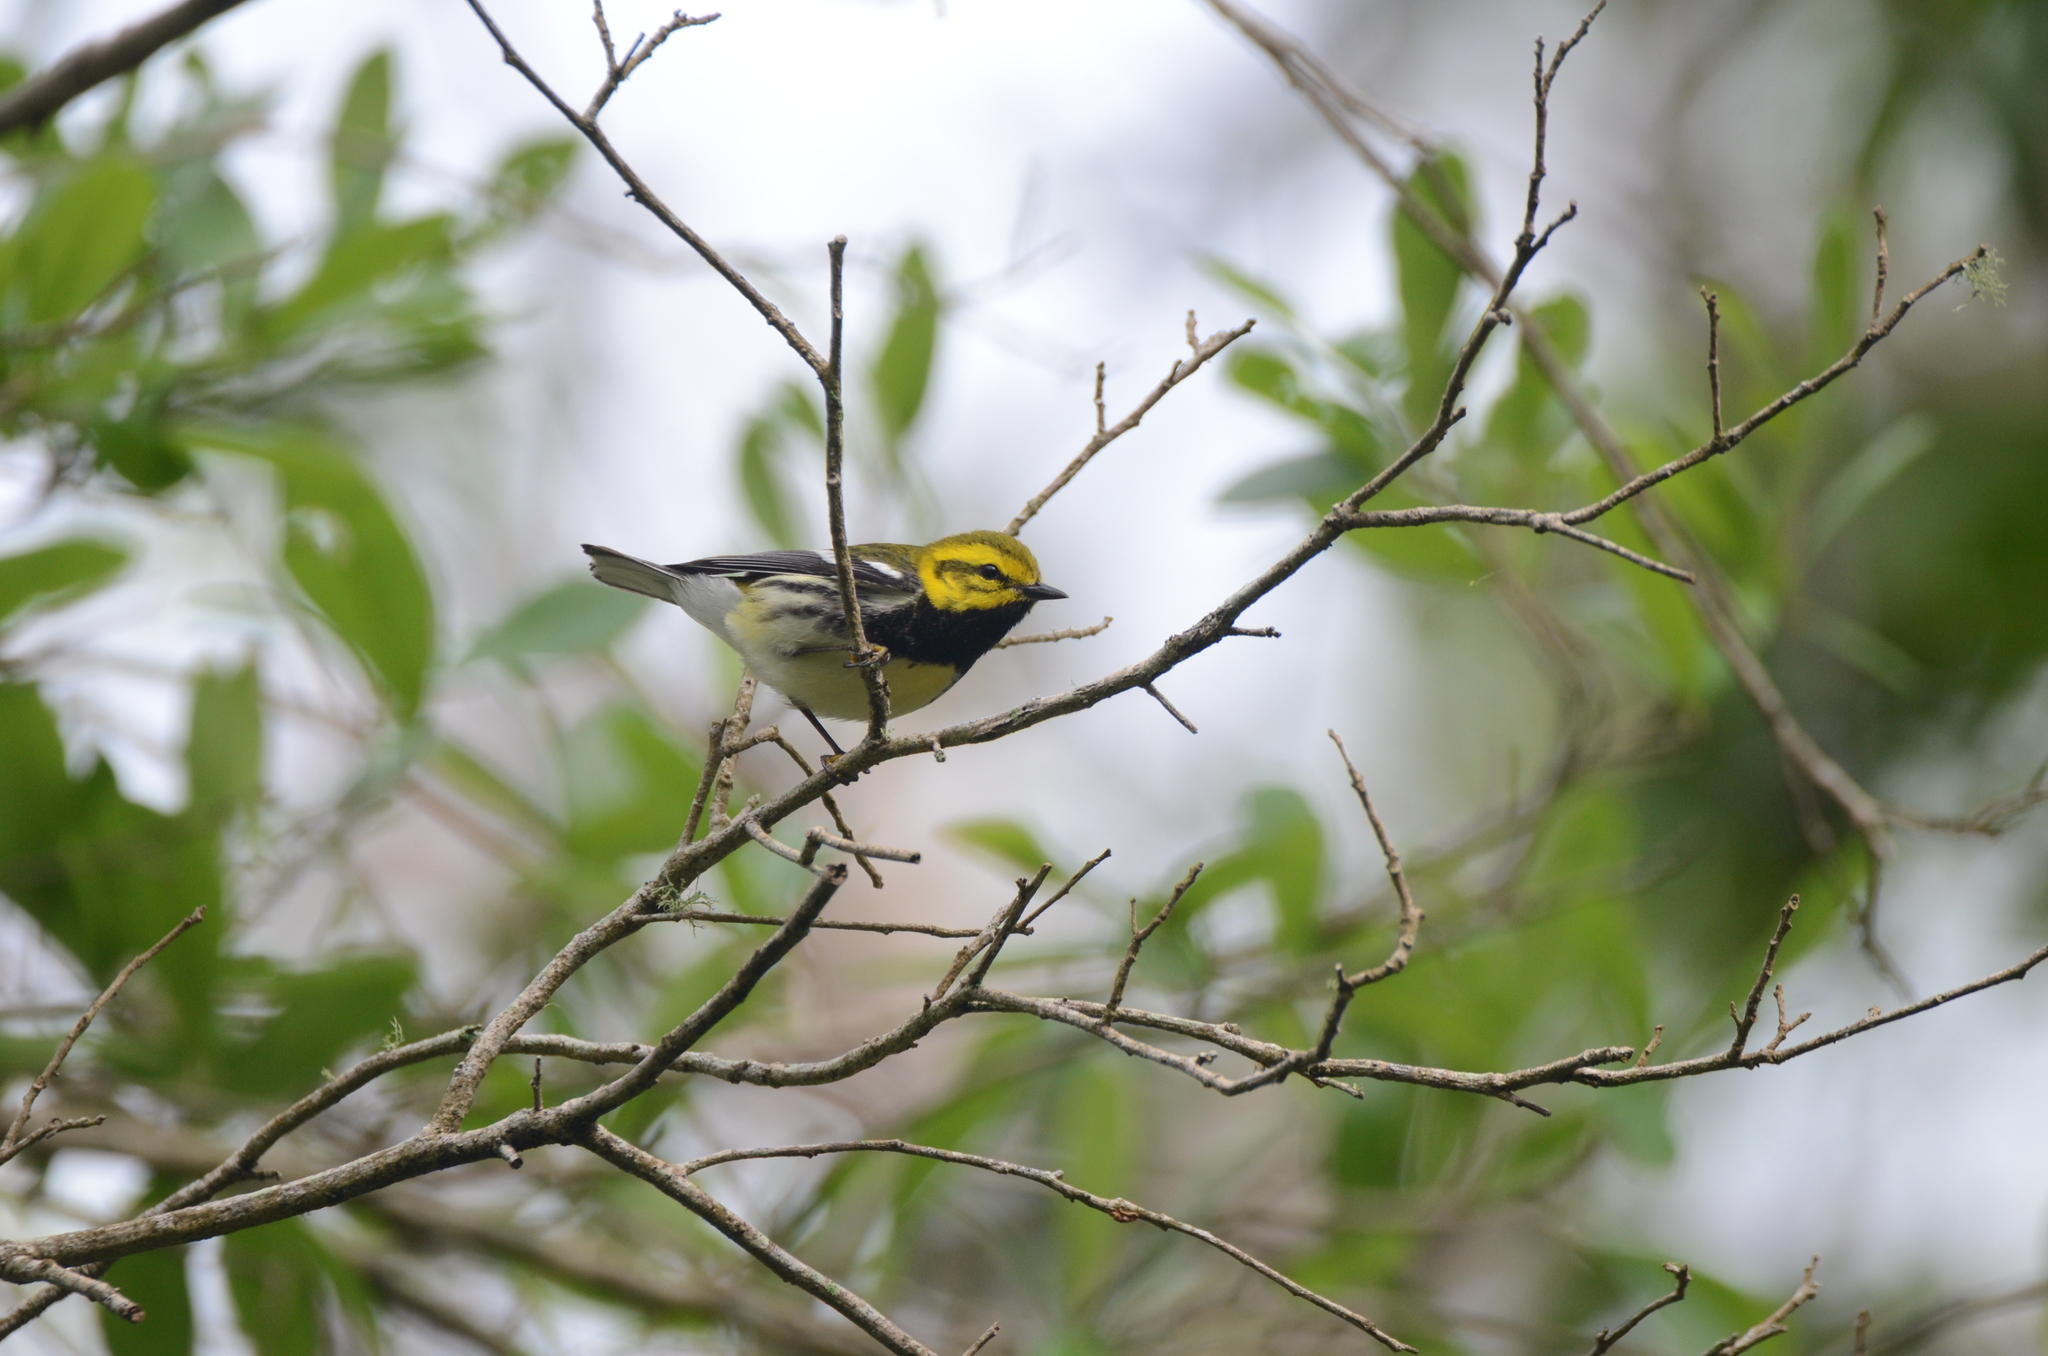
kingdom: Animalia
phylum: Chordata
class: Aves
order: Passeriformes
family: Parulidae
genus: Setophaga
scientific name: Setophaga virens
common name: Black-throated green warbler
